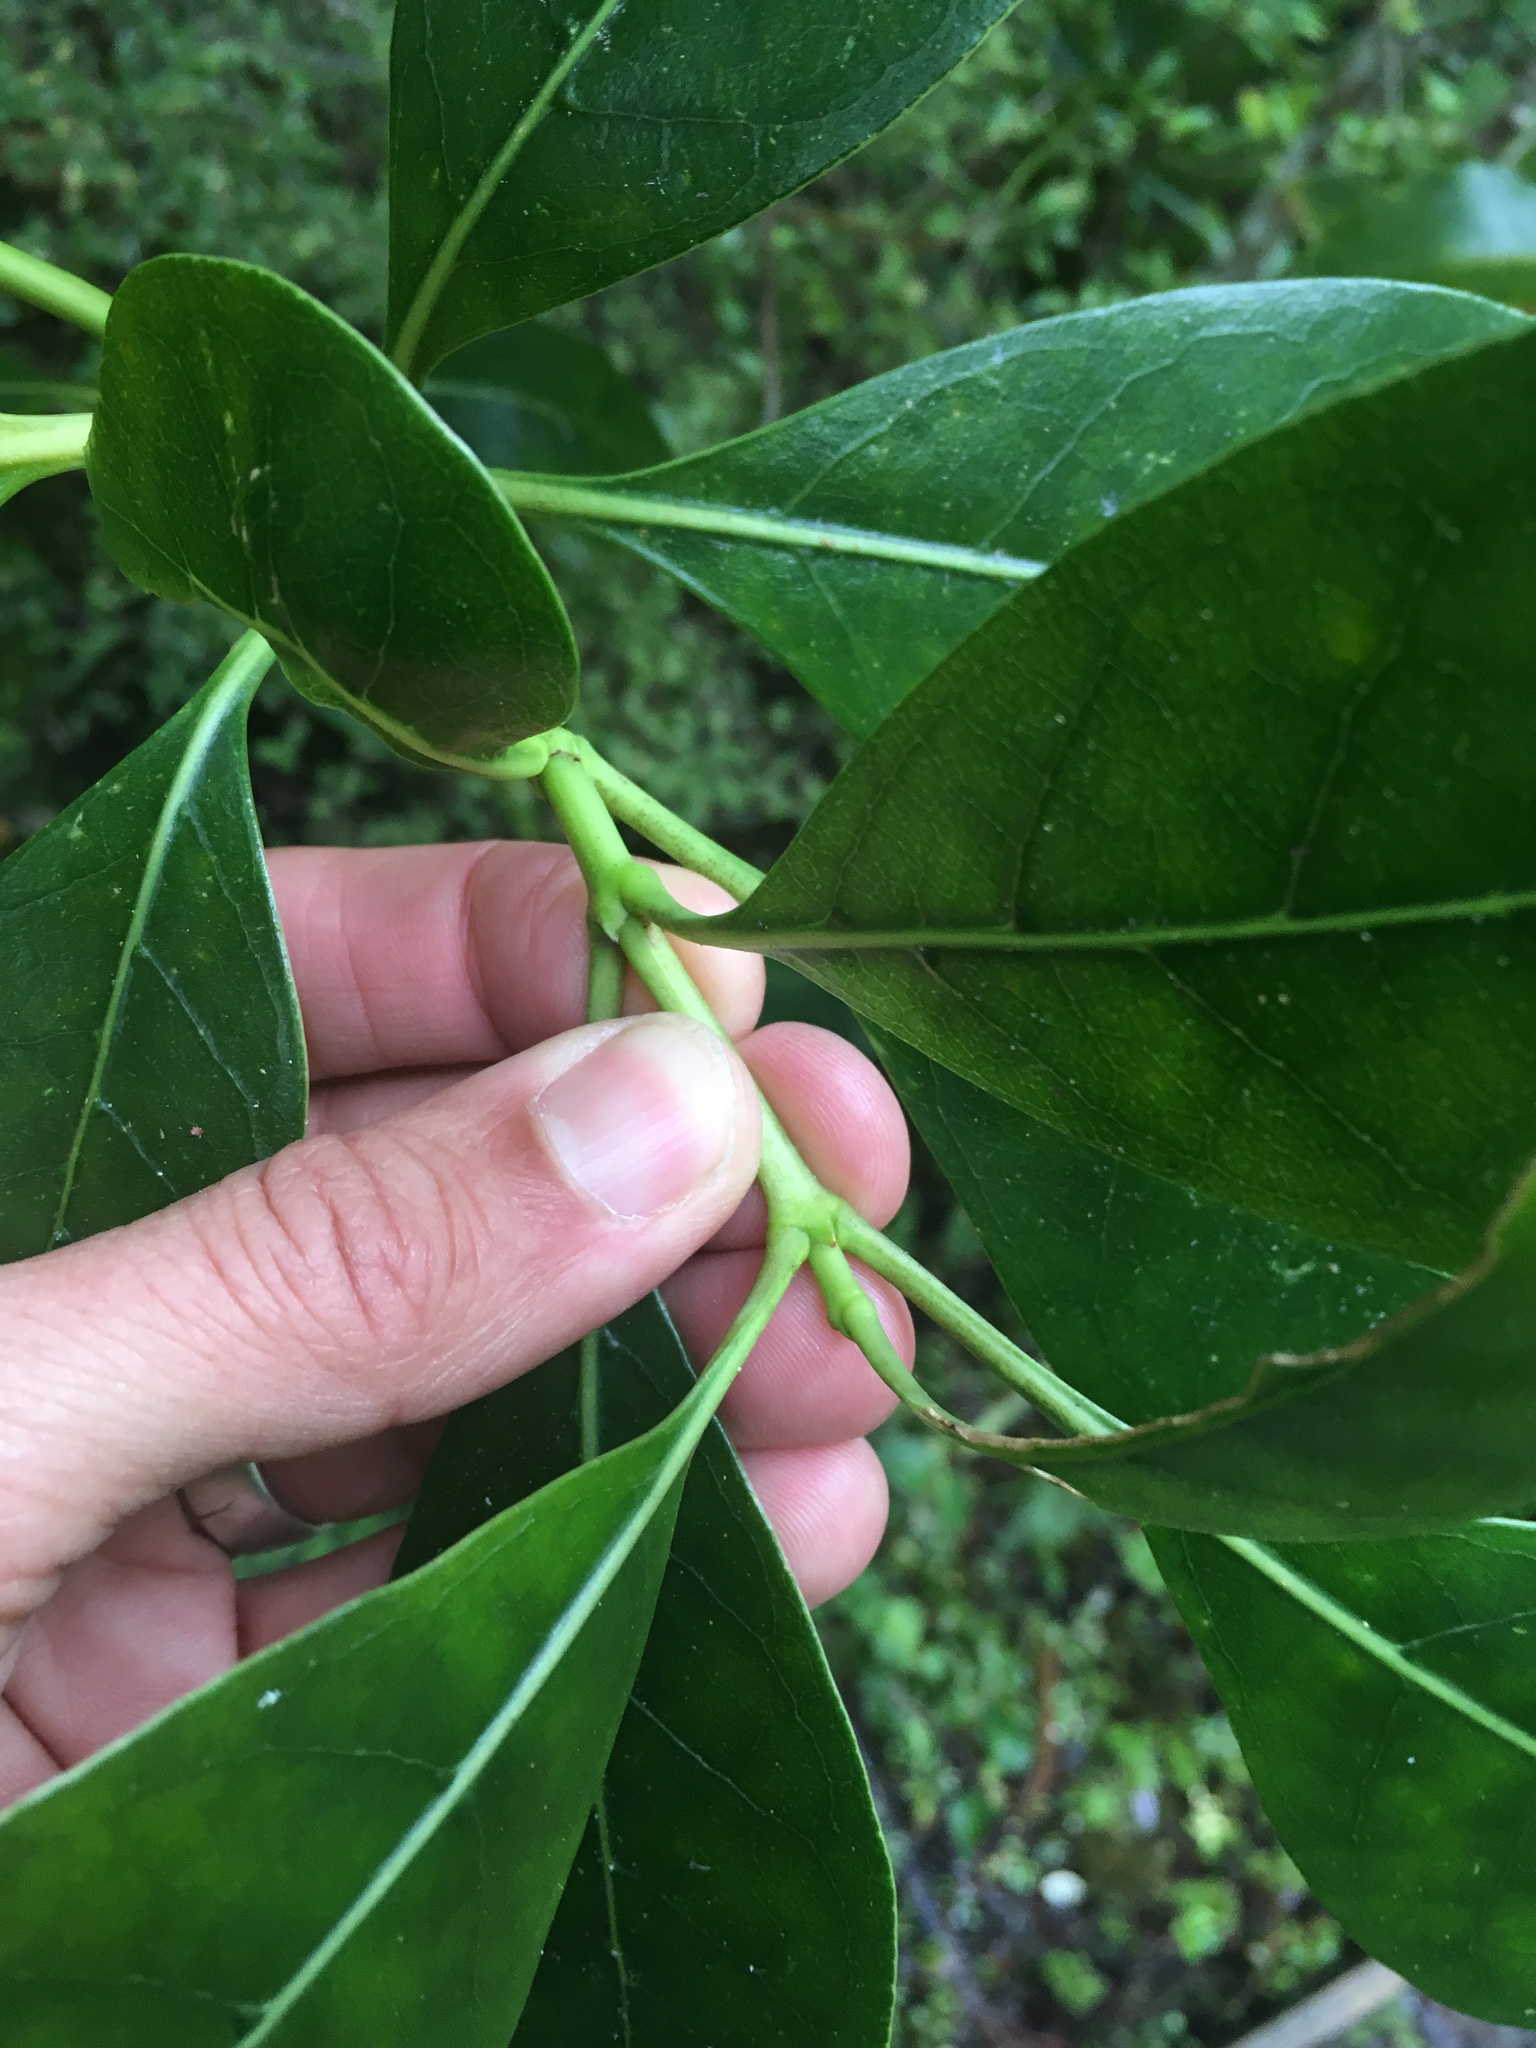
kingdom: Plantae
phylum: Tracheophyta
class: Magnoliopsida
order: Gentianales
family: Rubiaceae
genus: Coprosma
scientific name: Coprosma lucida
